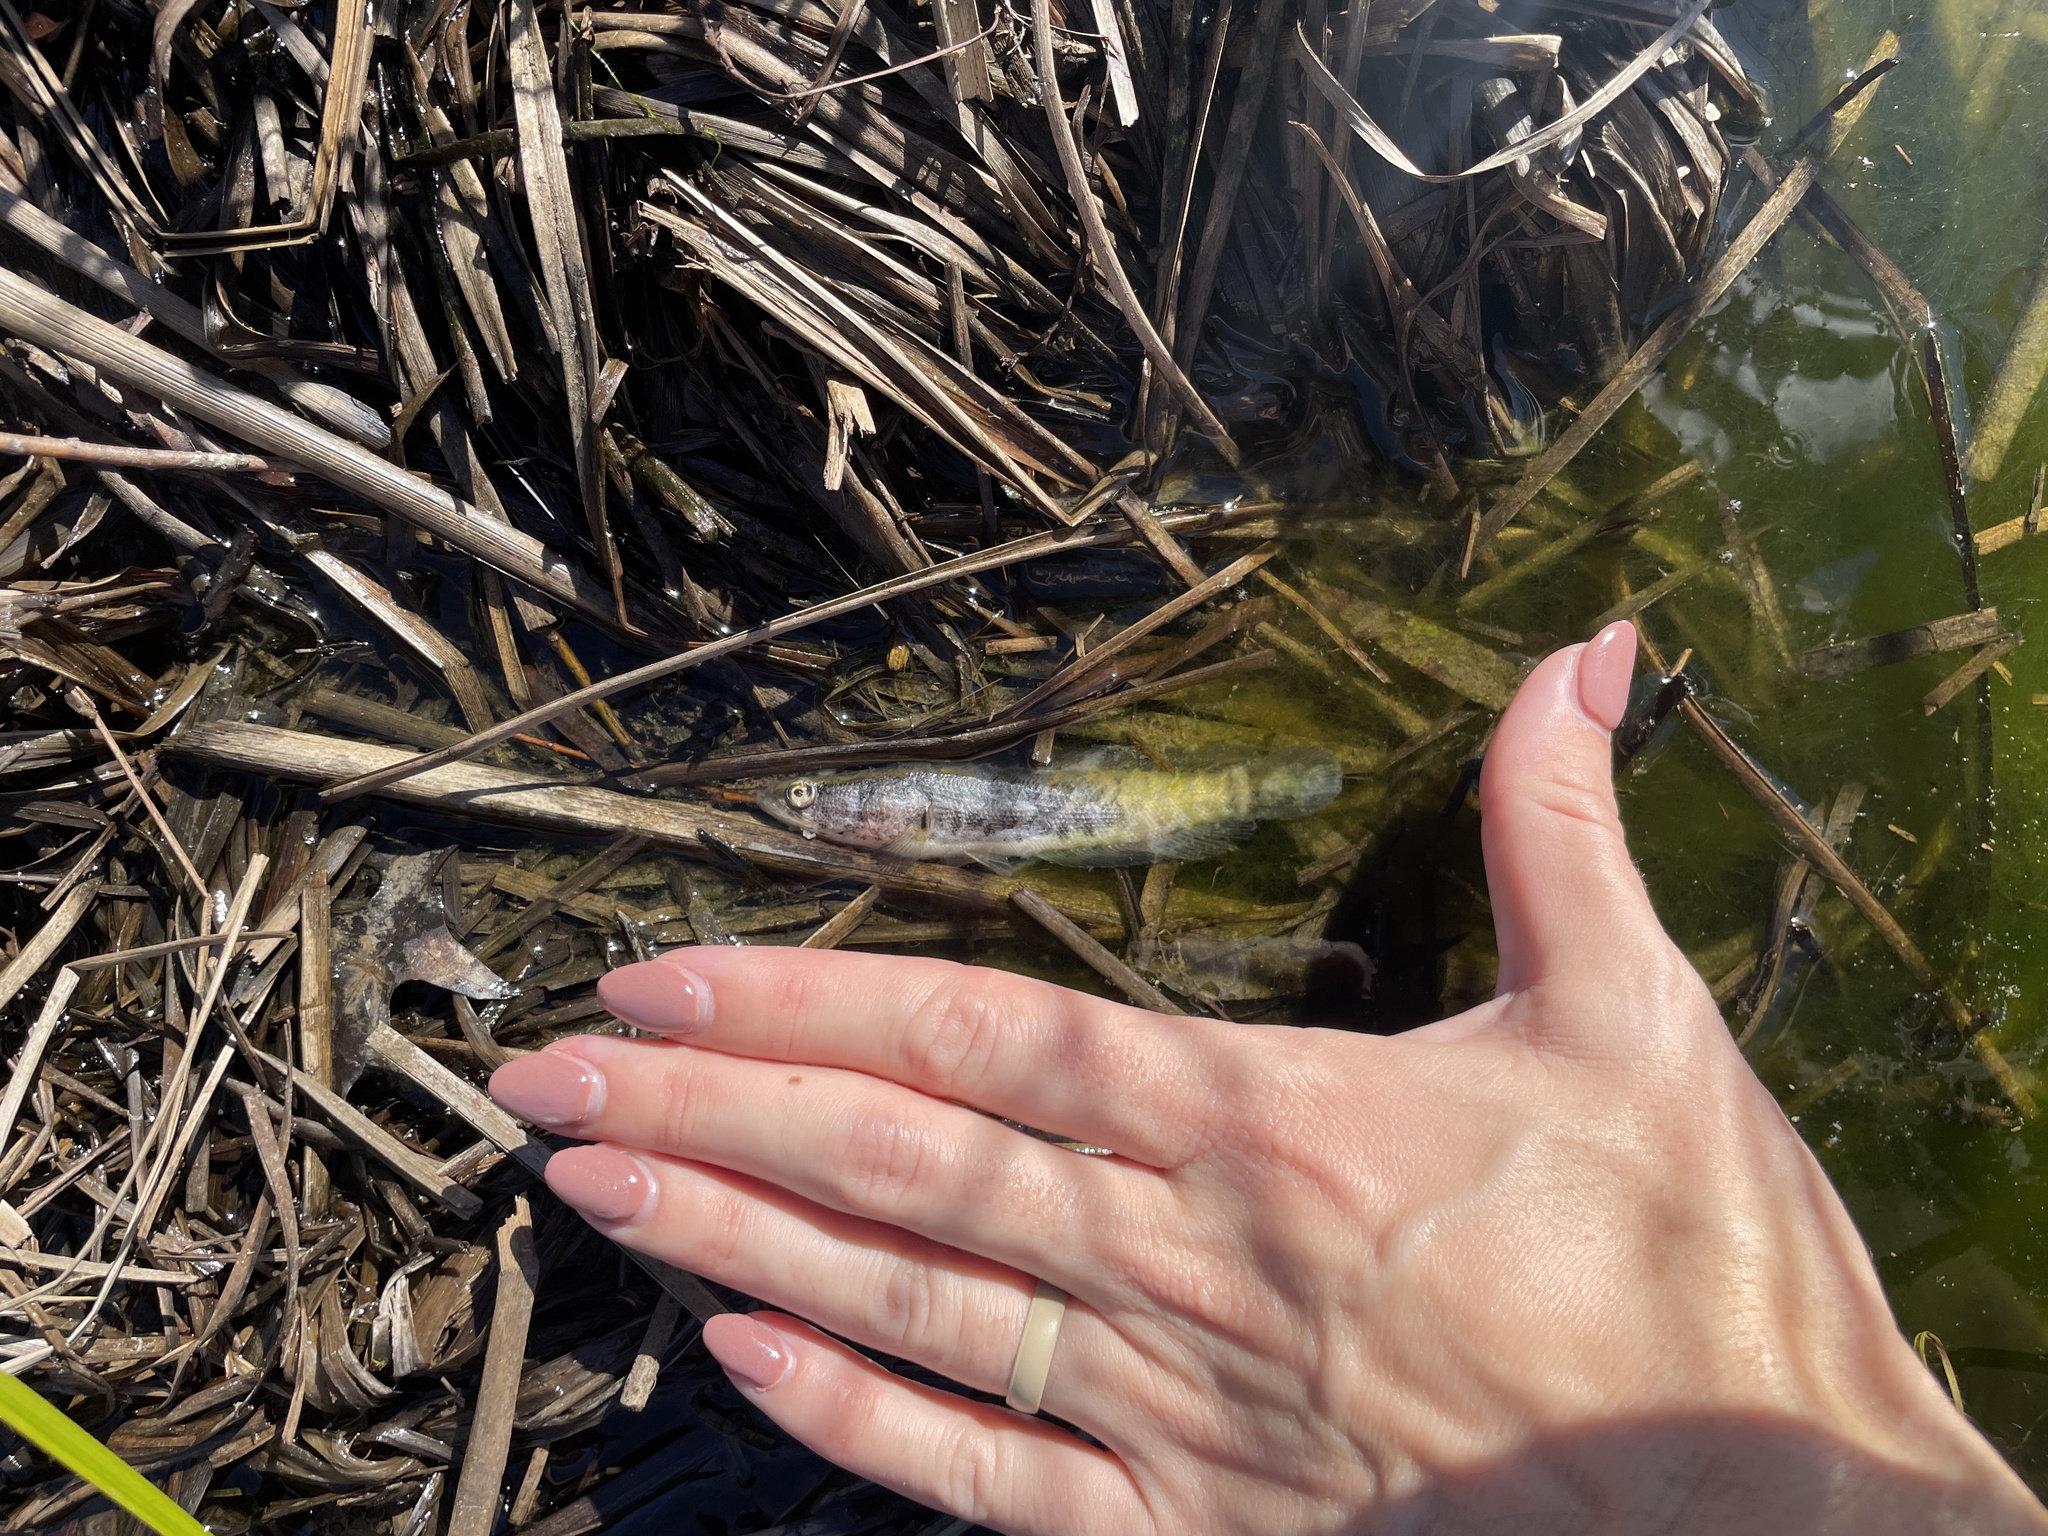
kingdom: Animalia
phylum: Chordata
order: Perciformes
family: Channidae
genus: Channa
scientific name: Channa argus
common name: Northern snakehead
